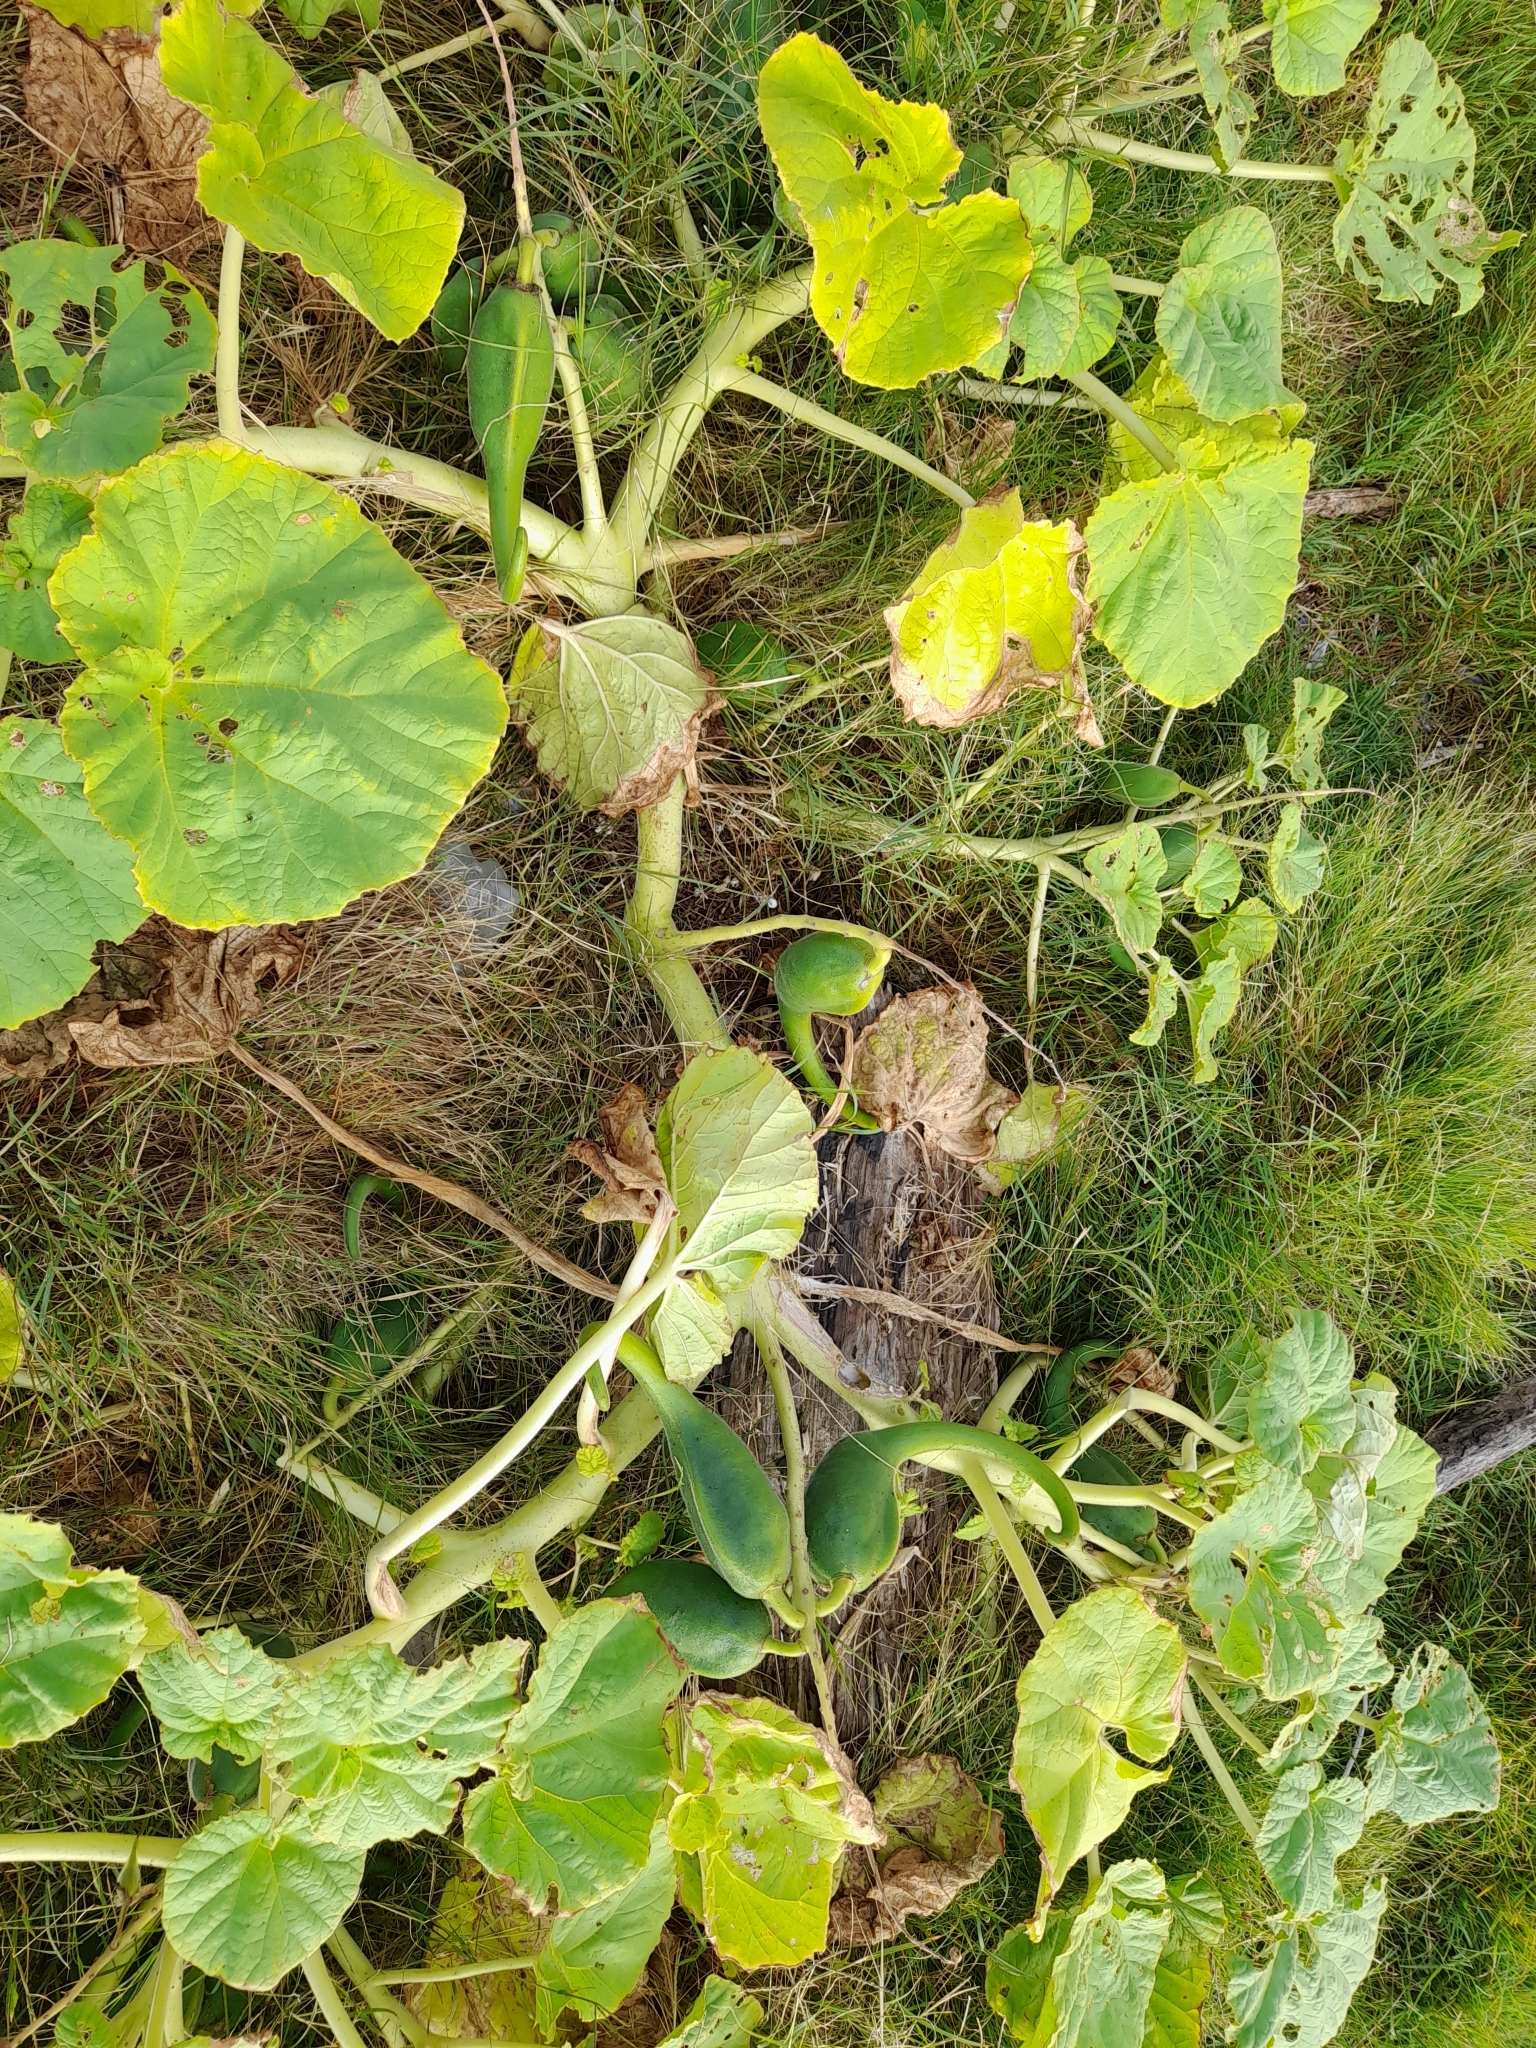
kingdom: Plantae
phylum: Tracheophyta
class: Magnoliopsida
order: Lamiales
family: Martyniaceae
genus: Ibicella
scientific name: Ibicella lutea
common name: Yellow unicorn-plant
